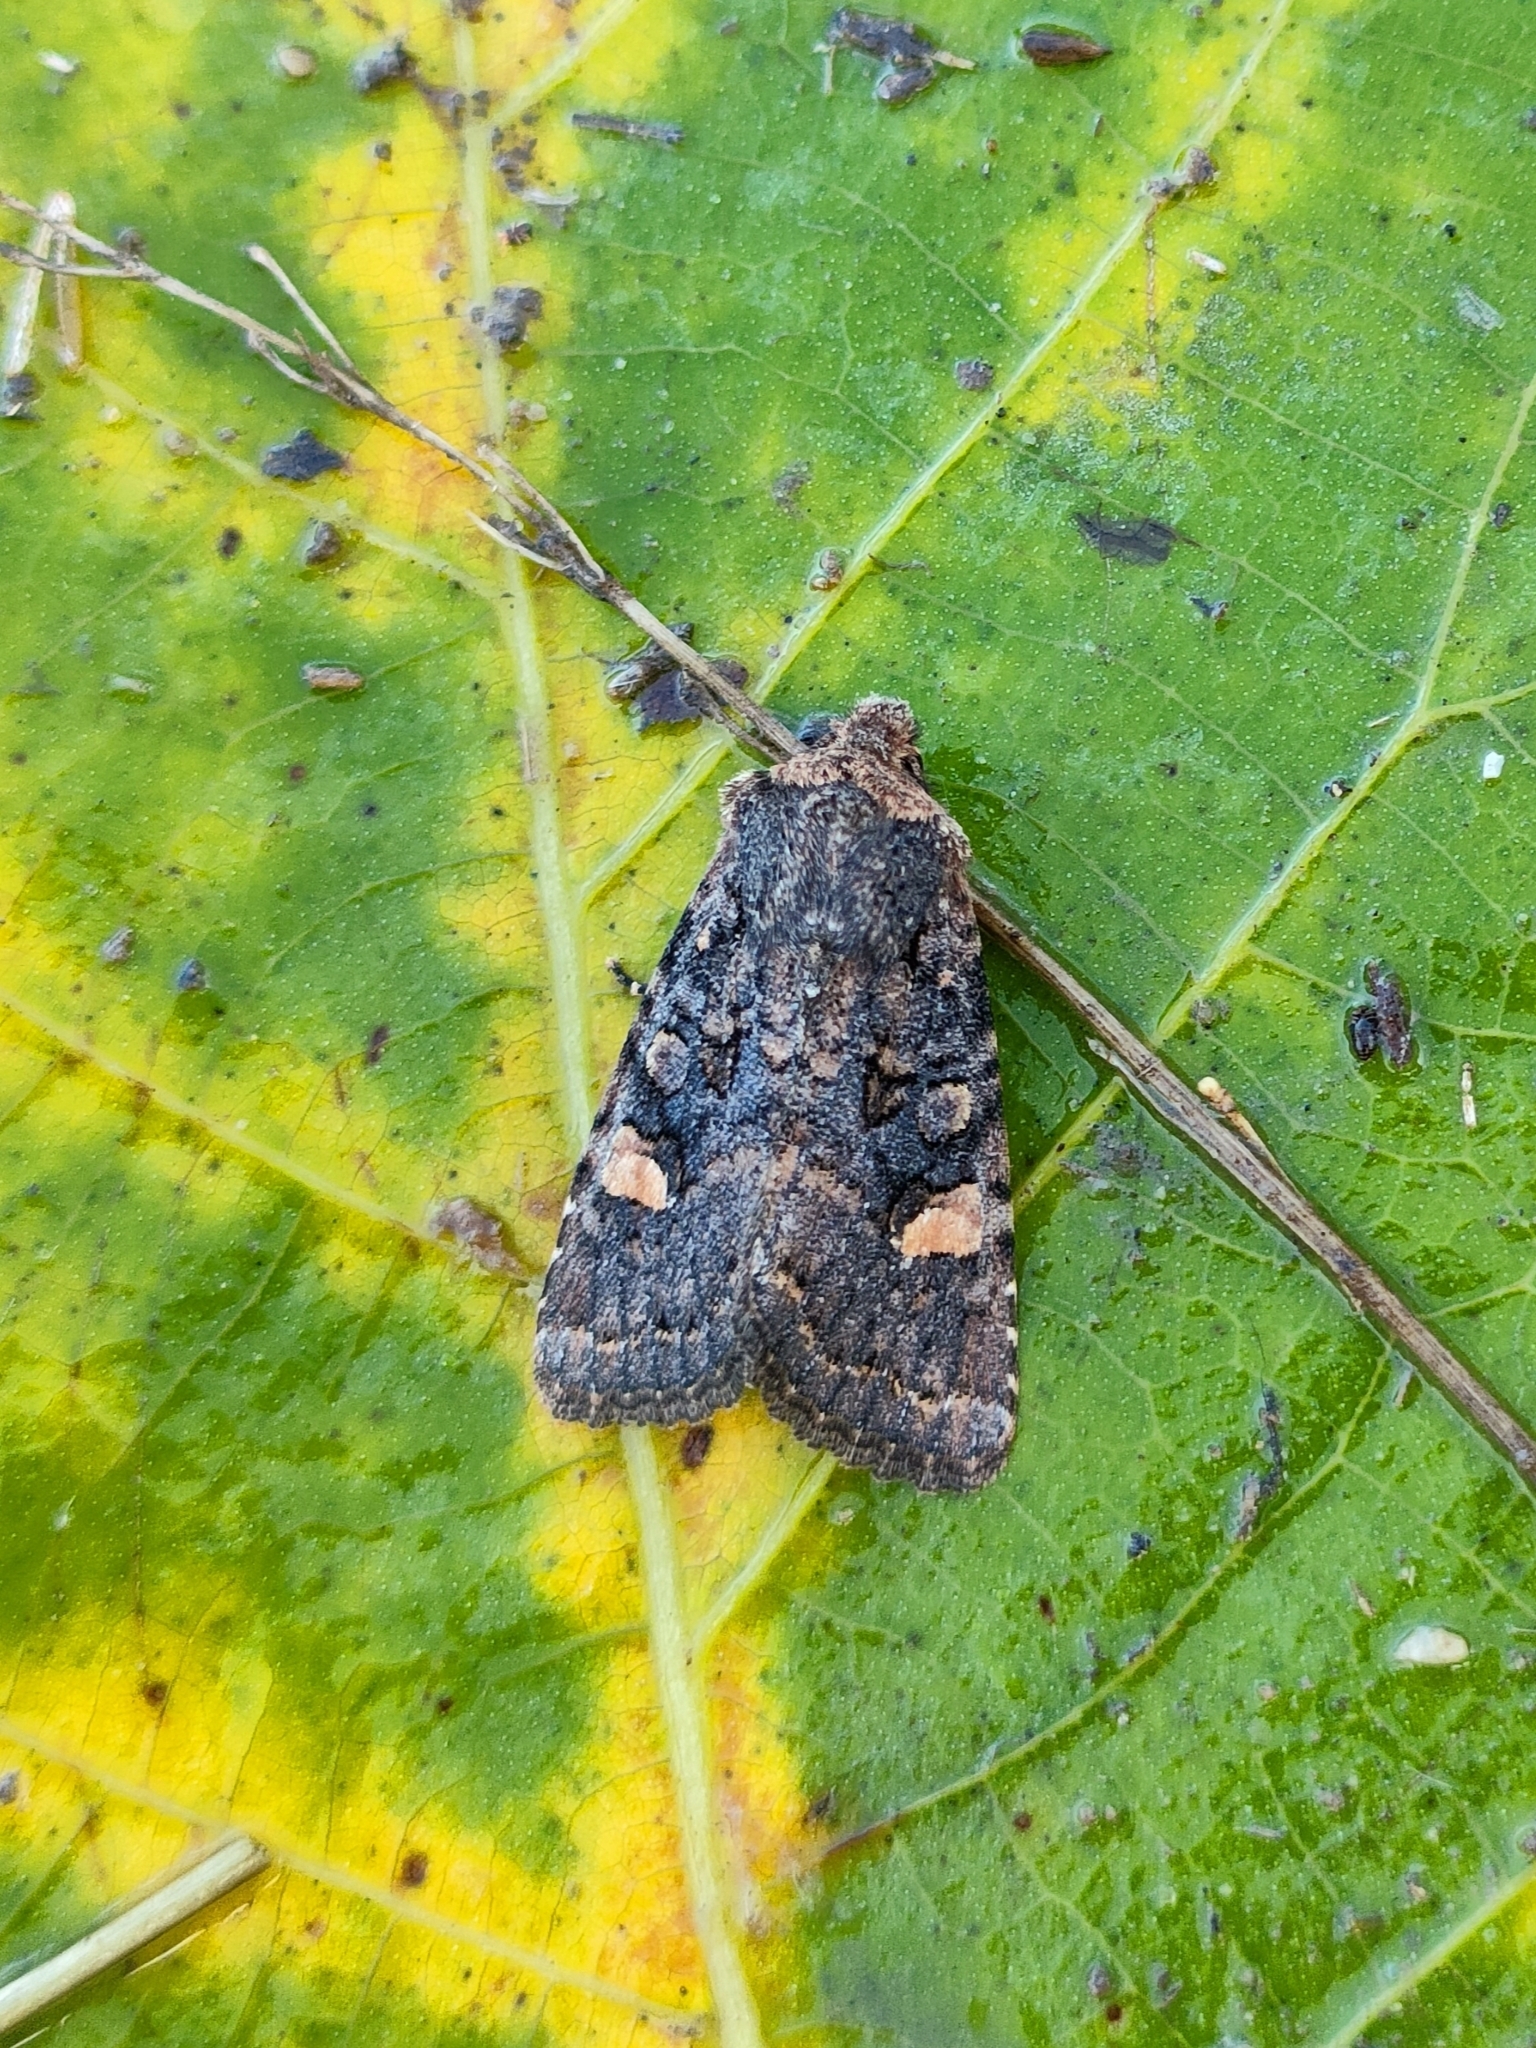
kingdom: Animalia
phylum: Arthropoda
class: Insecta
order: Lepidoptera
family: Noctuidae
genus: Dryobota
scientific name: Dryobota labecula
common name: Oak rustic
